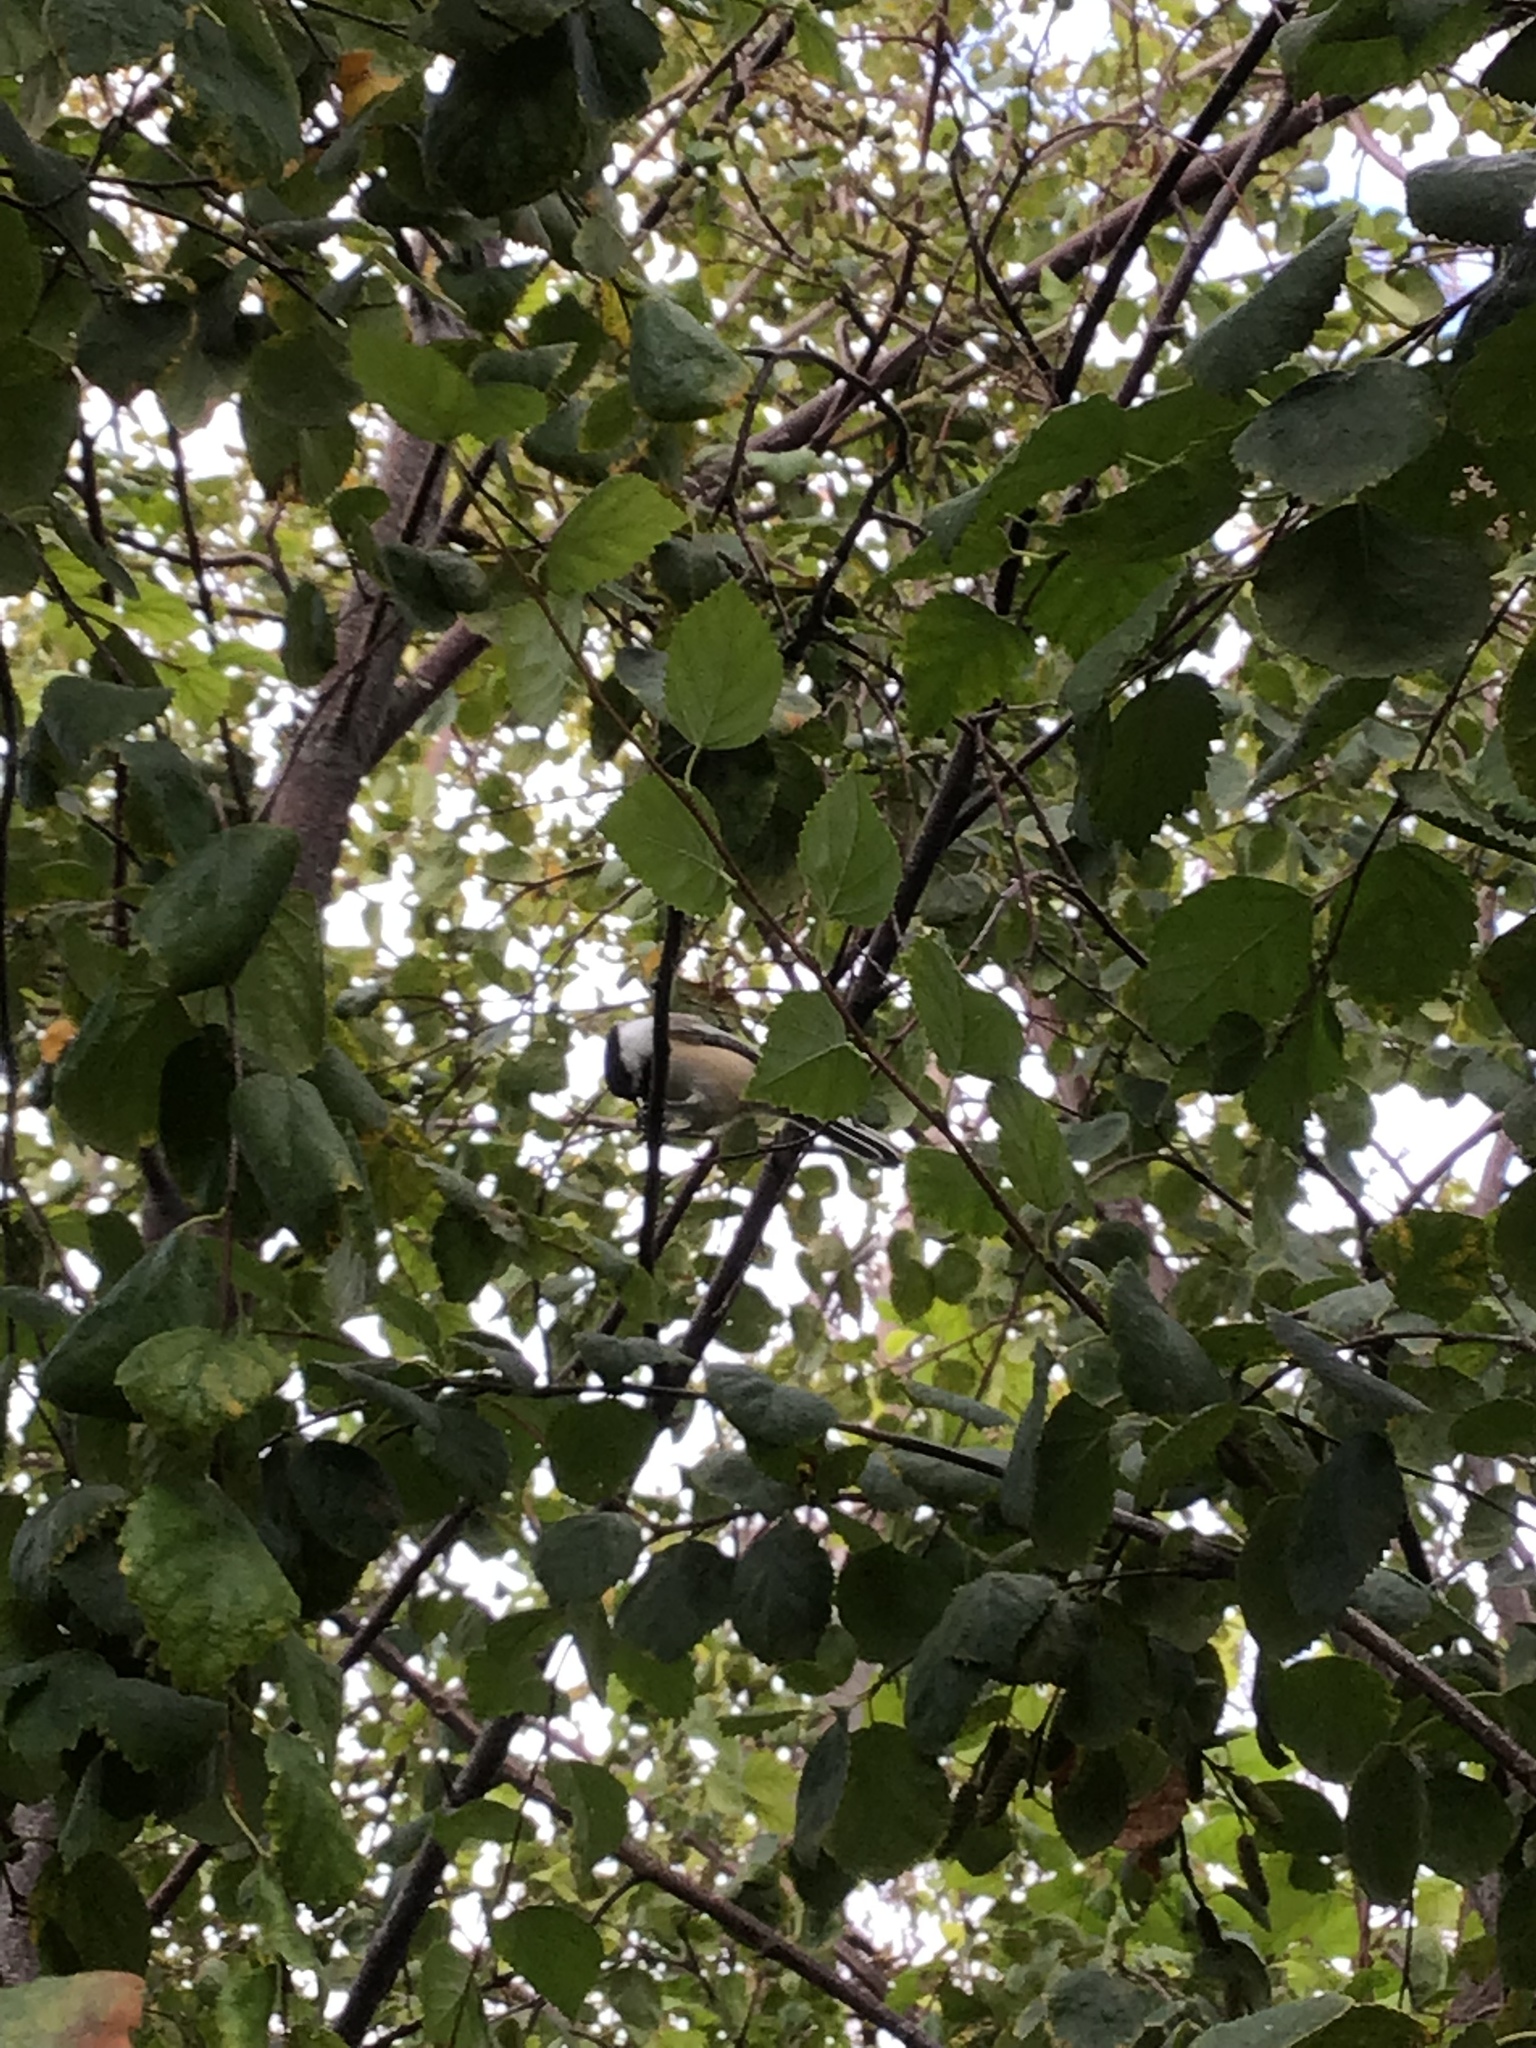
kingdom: Animalia
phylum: Chordata
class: Aves
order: Passeriformes
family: Paridae
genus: Poecile
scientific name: Poecile atricapillus
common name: Black-capped chickadee
